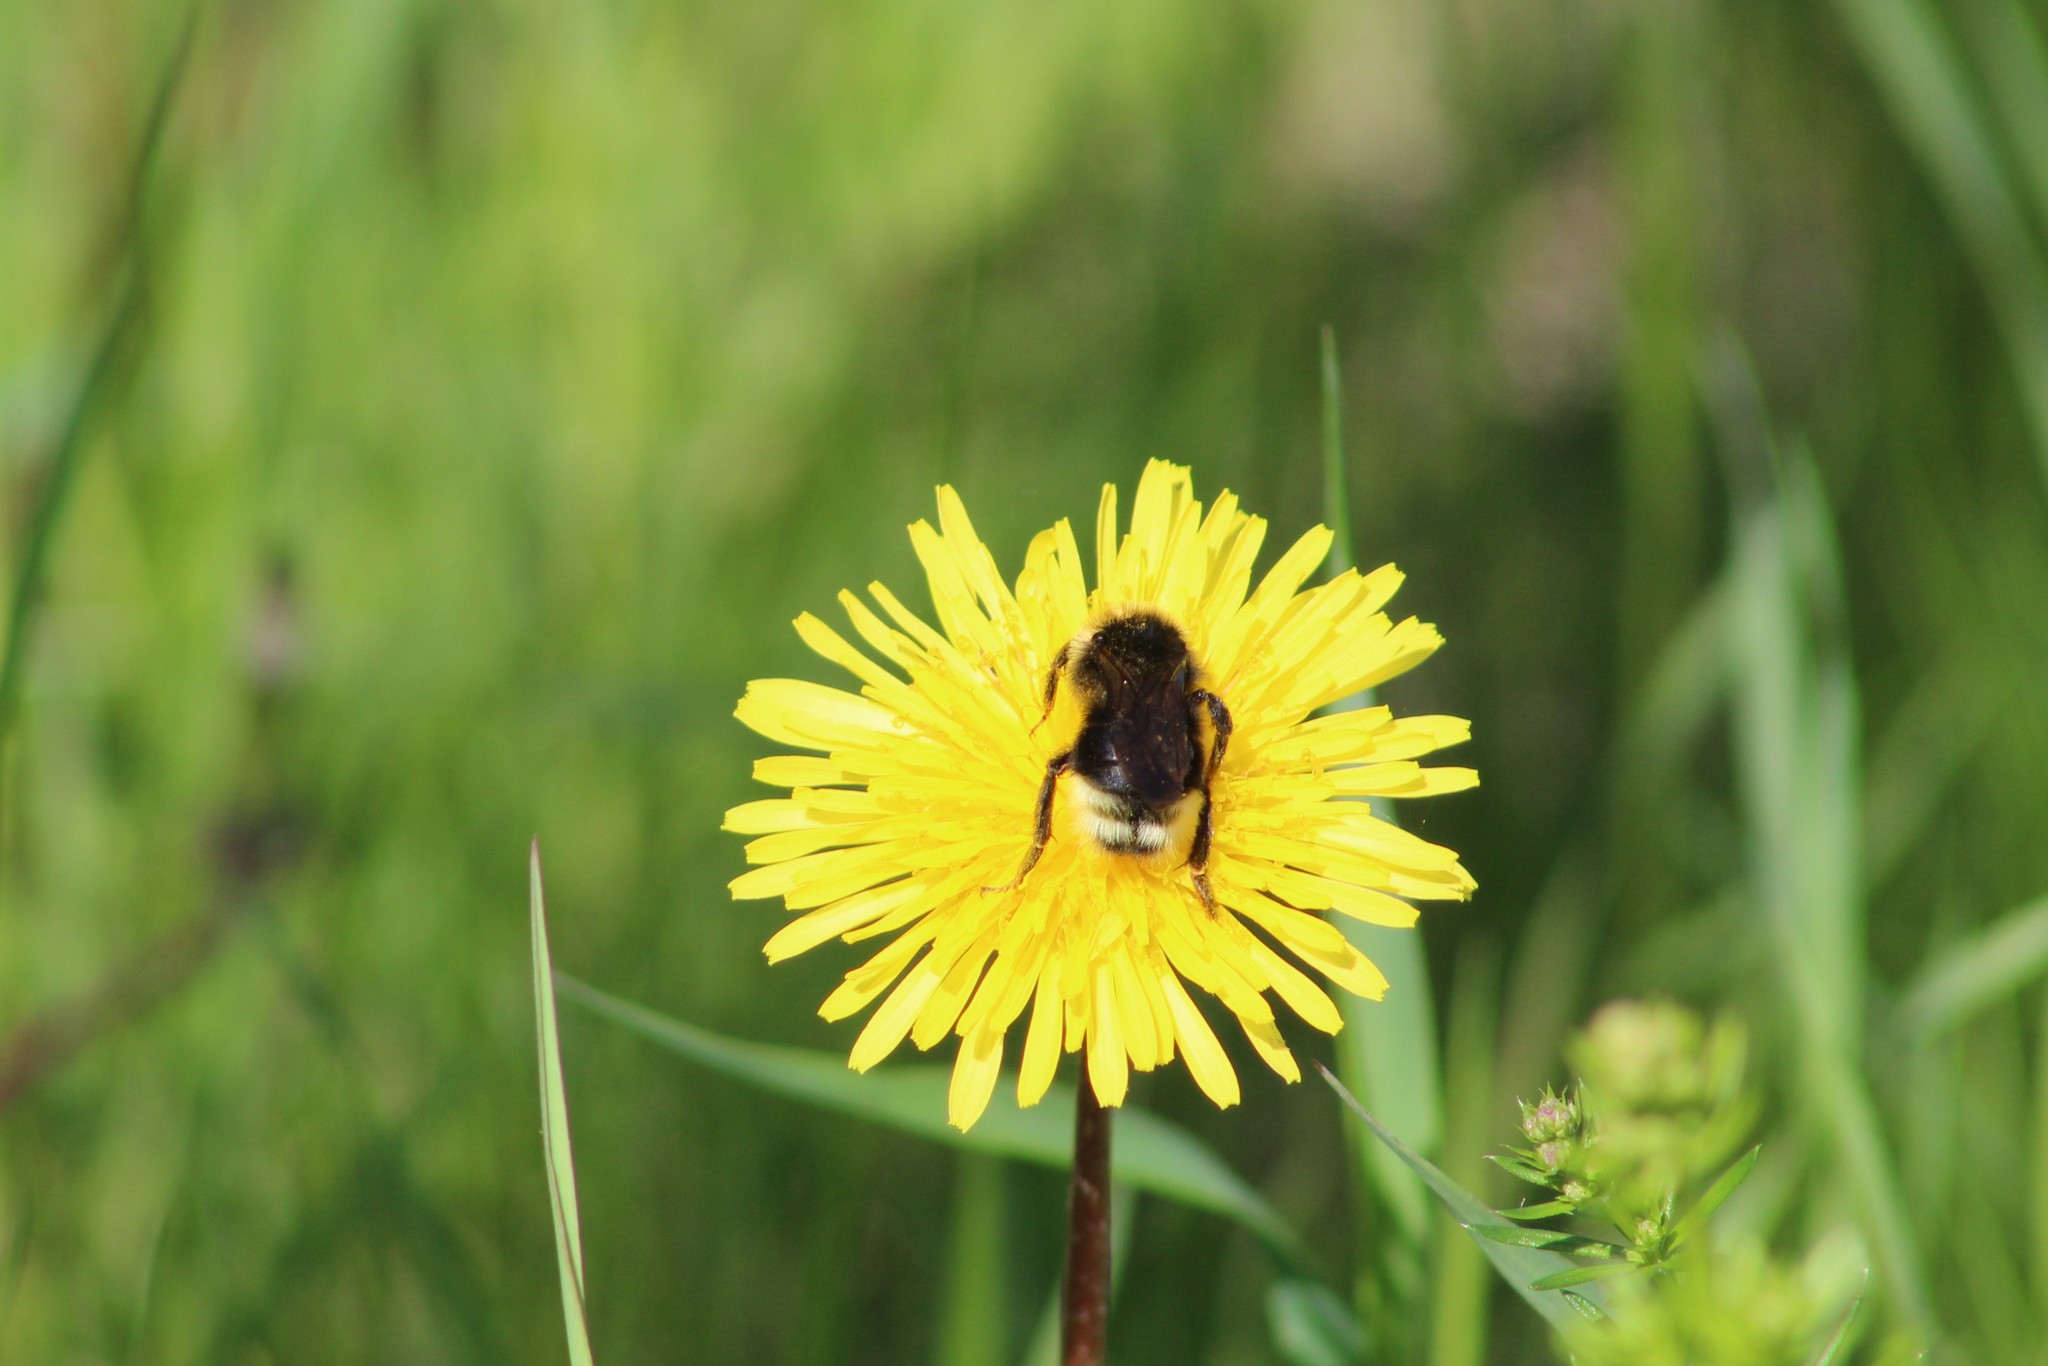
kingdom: Animalia
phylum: Arthropoda
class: Insecta
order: Hymenoptera
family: Apidae
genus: Bombus
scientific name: Bombus bohemicus
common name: Gypsy cuckoo bee
